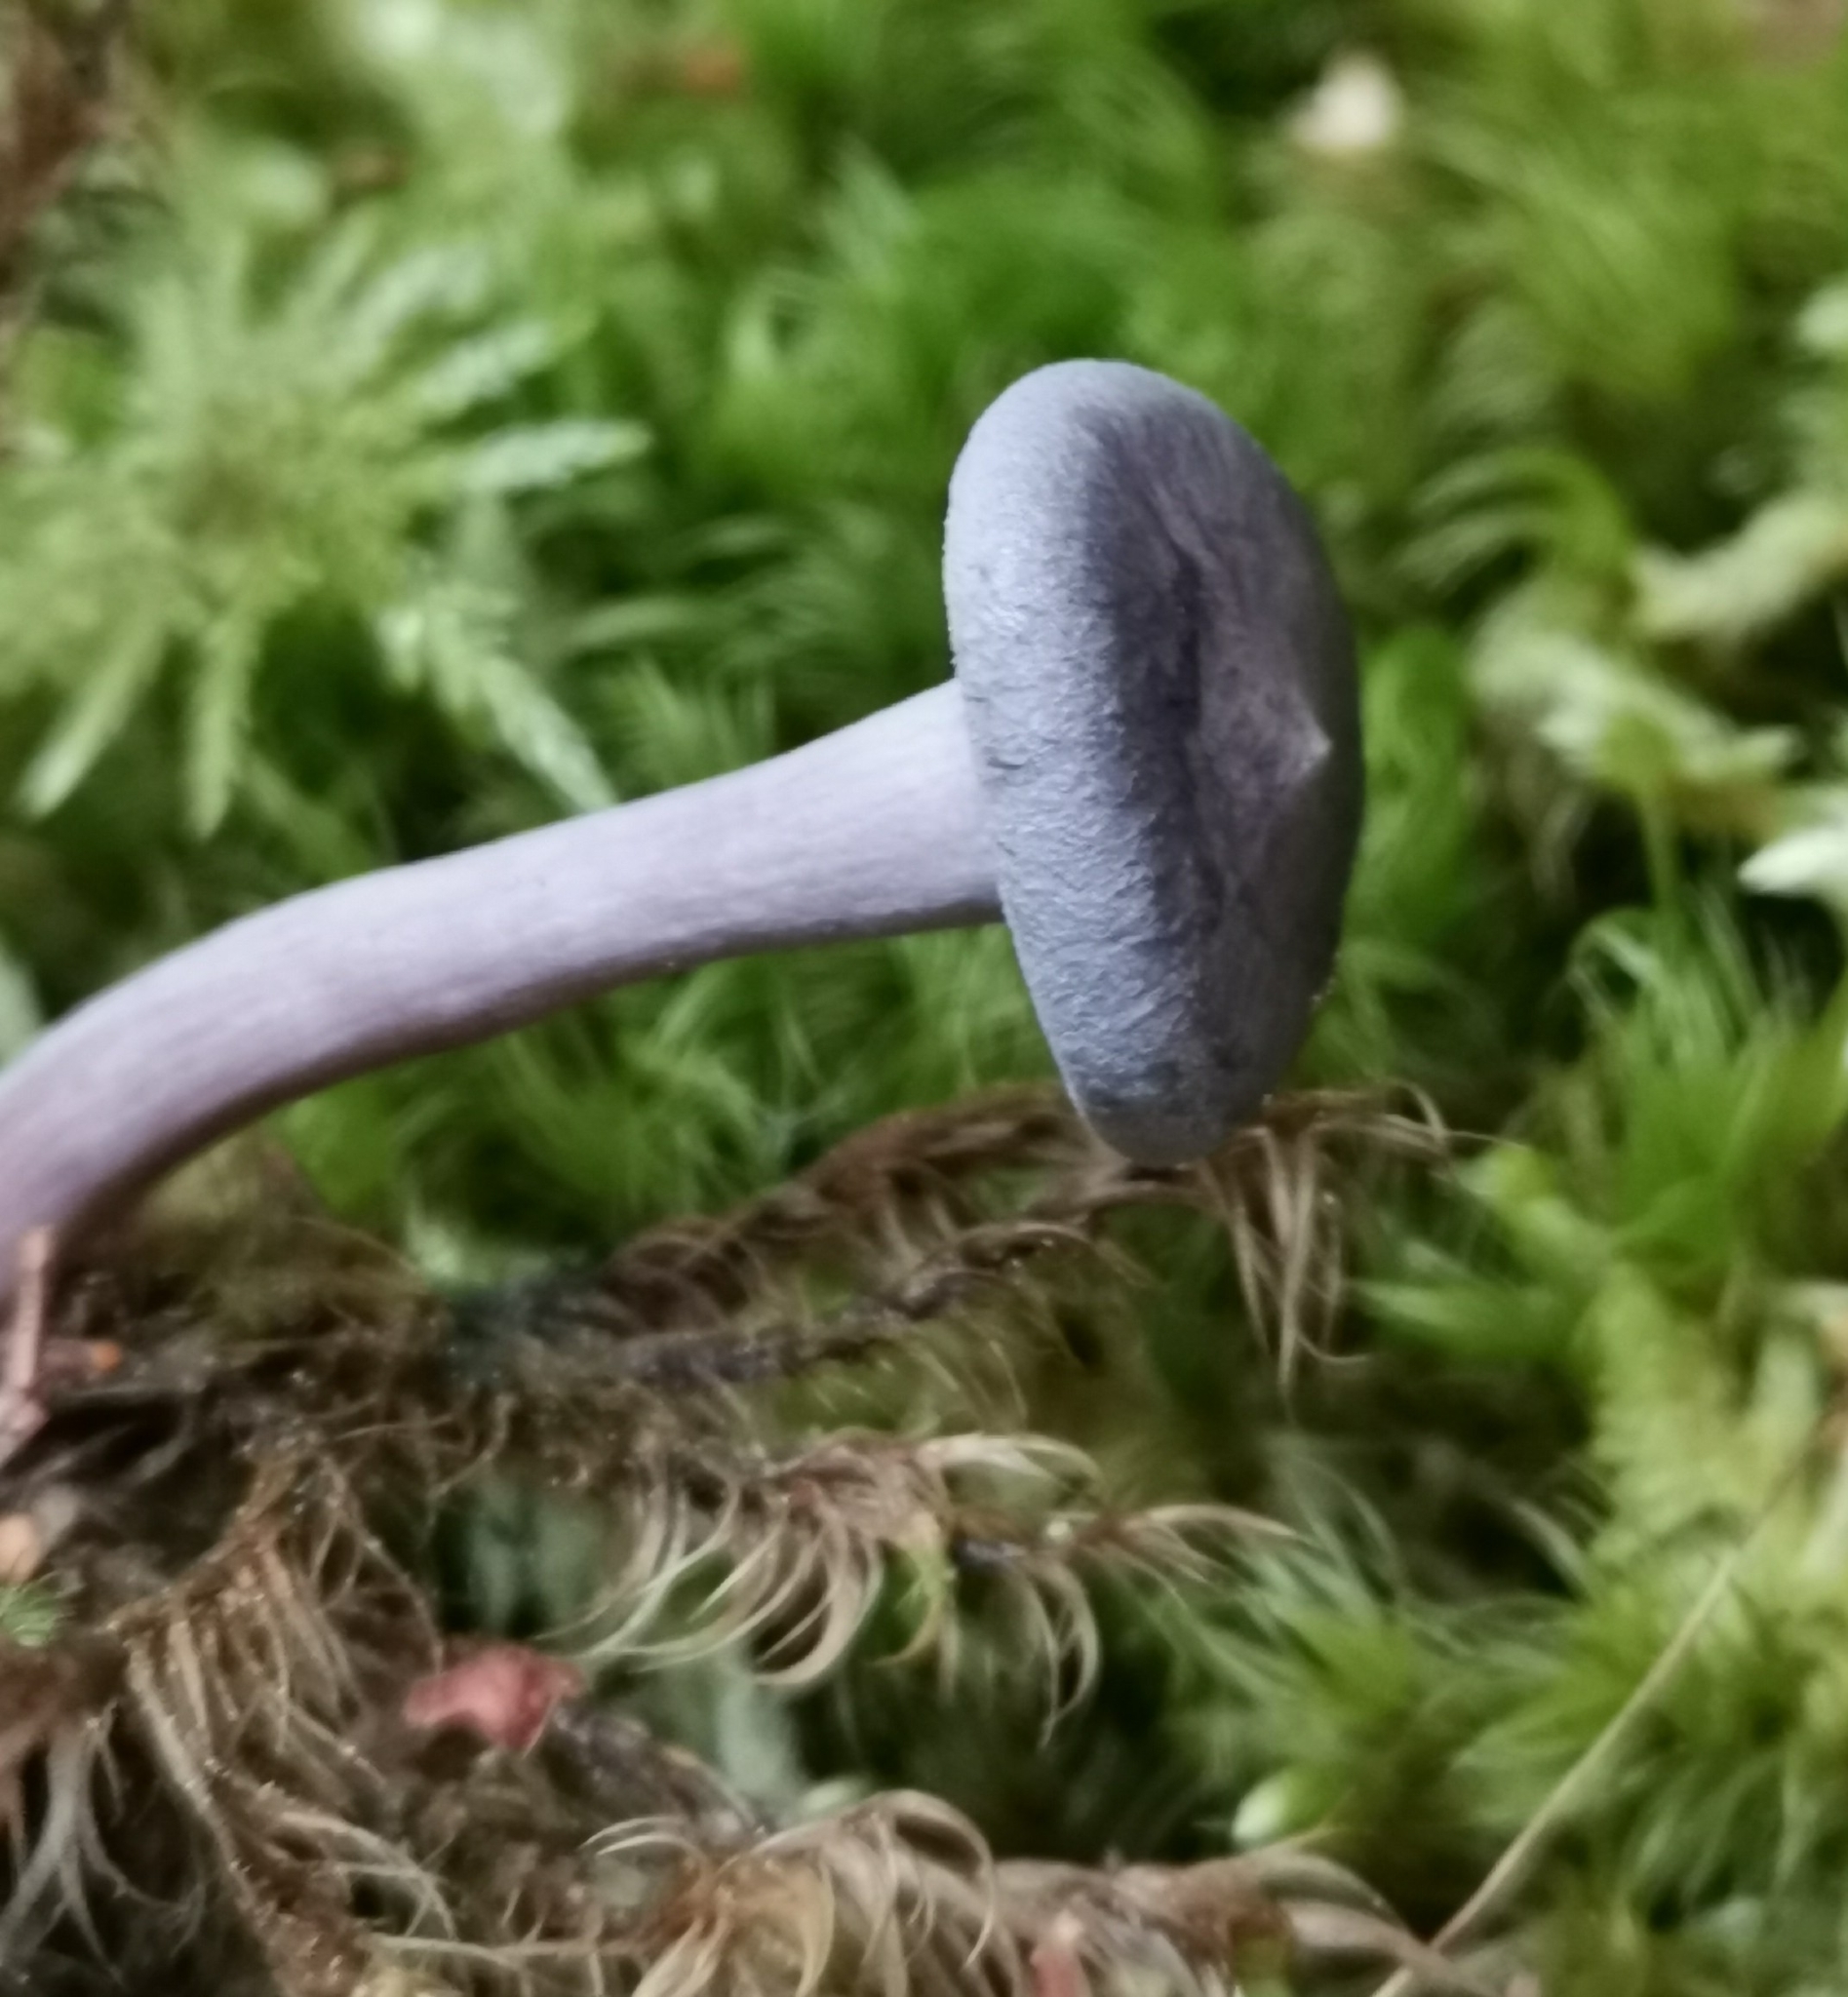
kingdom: Fungi
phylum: Basidiomycota
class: Agaricomycetes
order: Agaricales
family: Hygrophoraceae
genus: Cantharellula
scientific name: Cantharellula umbonata
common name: The humpback
